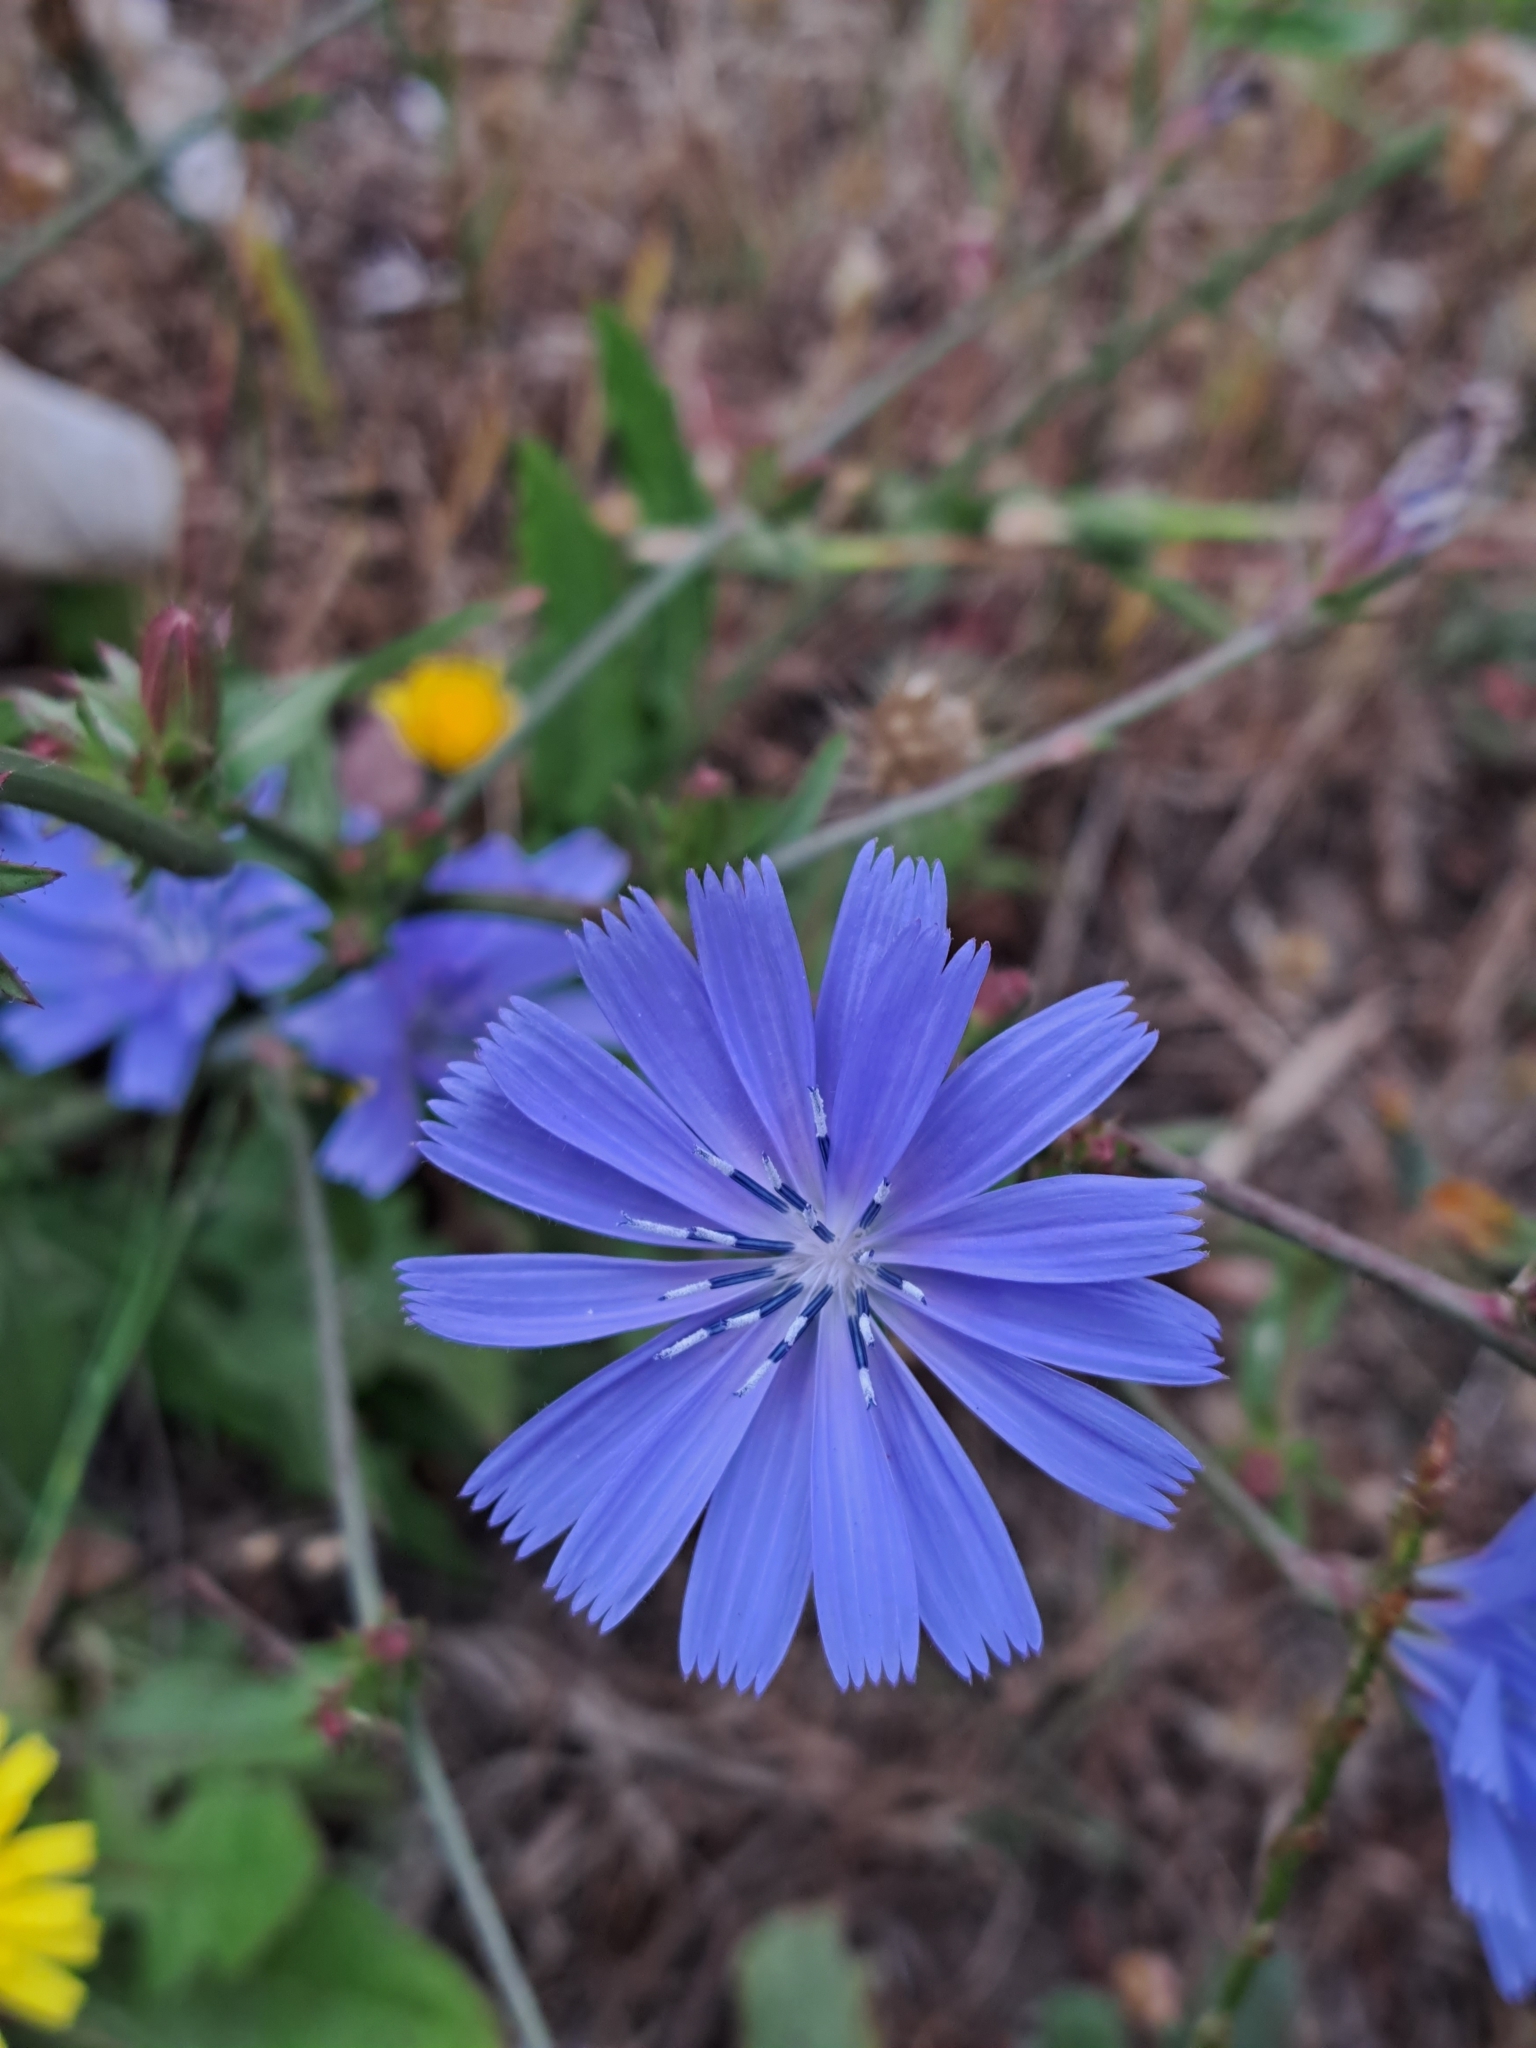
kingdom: Plantae
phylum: Tracheophyta
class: Magnoliopsida
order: Asterales
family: Asteraceae
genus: Cichorium
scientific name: Cichorium intybus
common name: Chicory
